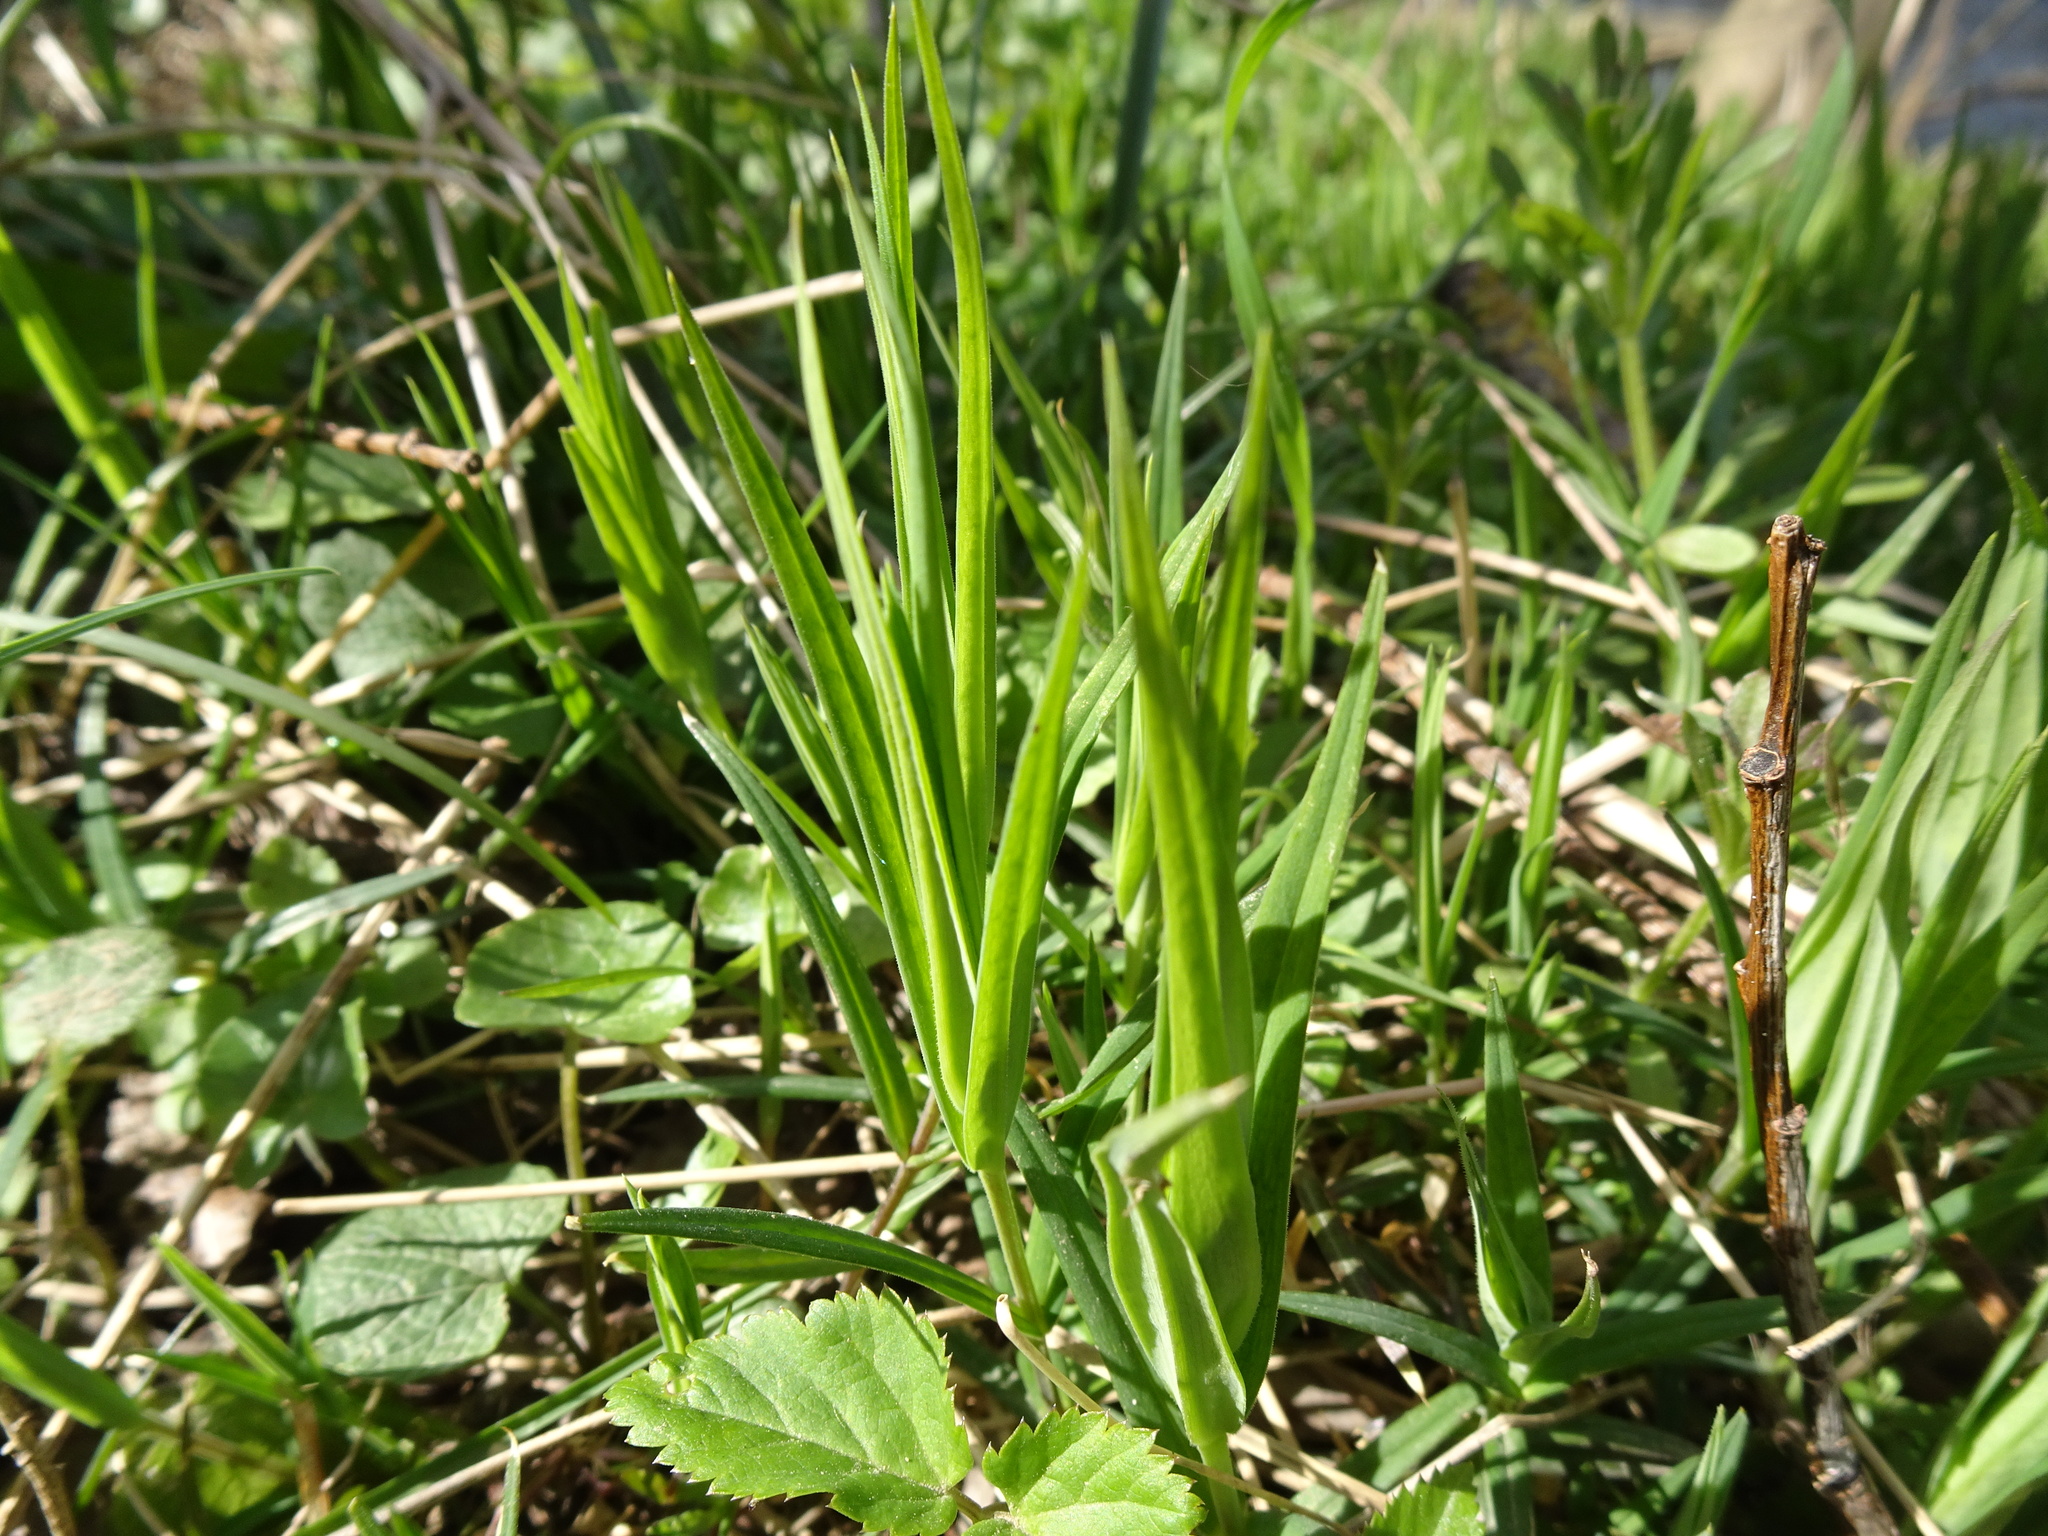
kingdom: Plantae
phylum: Tracheophyta
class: Magnoliopsida
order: Caryophyllales
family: Caryophyllaceae
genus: Rabelera
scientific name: Rabelera holostea
